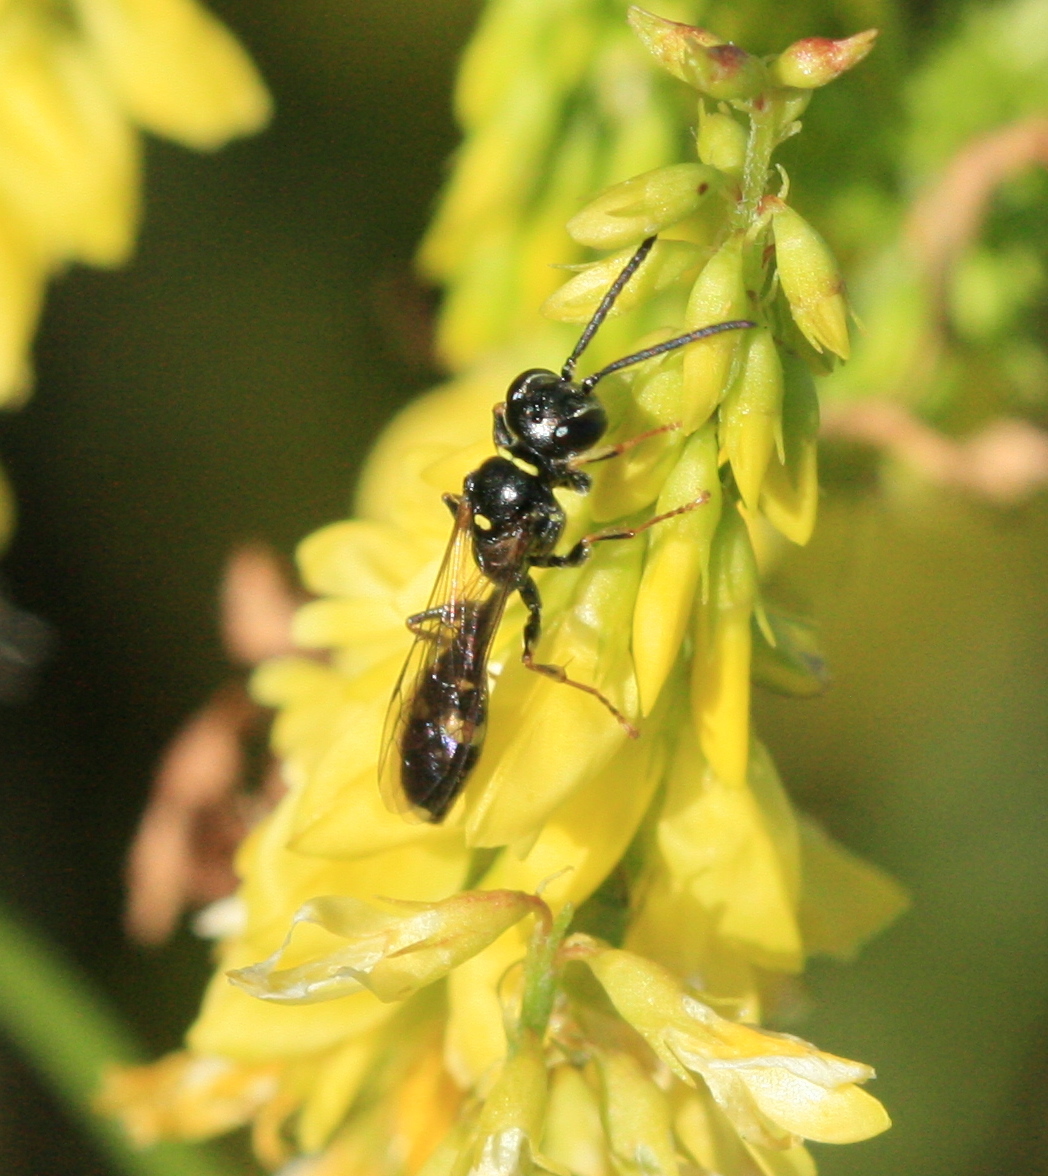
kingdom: Animalia
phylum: Arthropoda
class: Insecta
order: Hymenoptera
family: Crabronidae
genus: Mellinus
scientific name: Mellinus arvensis
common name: Field digger wasp
